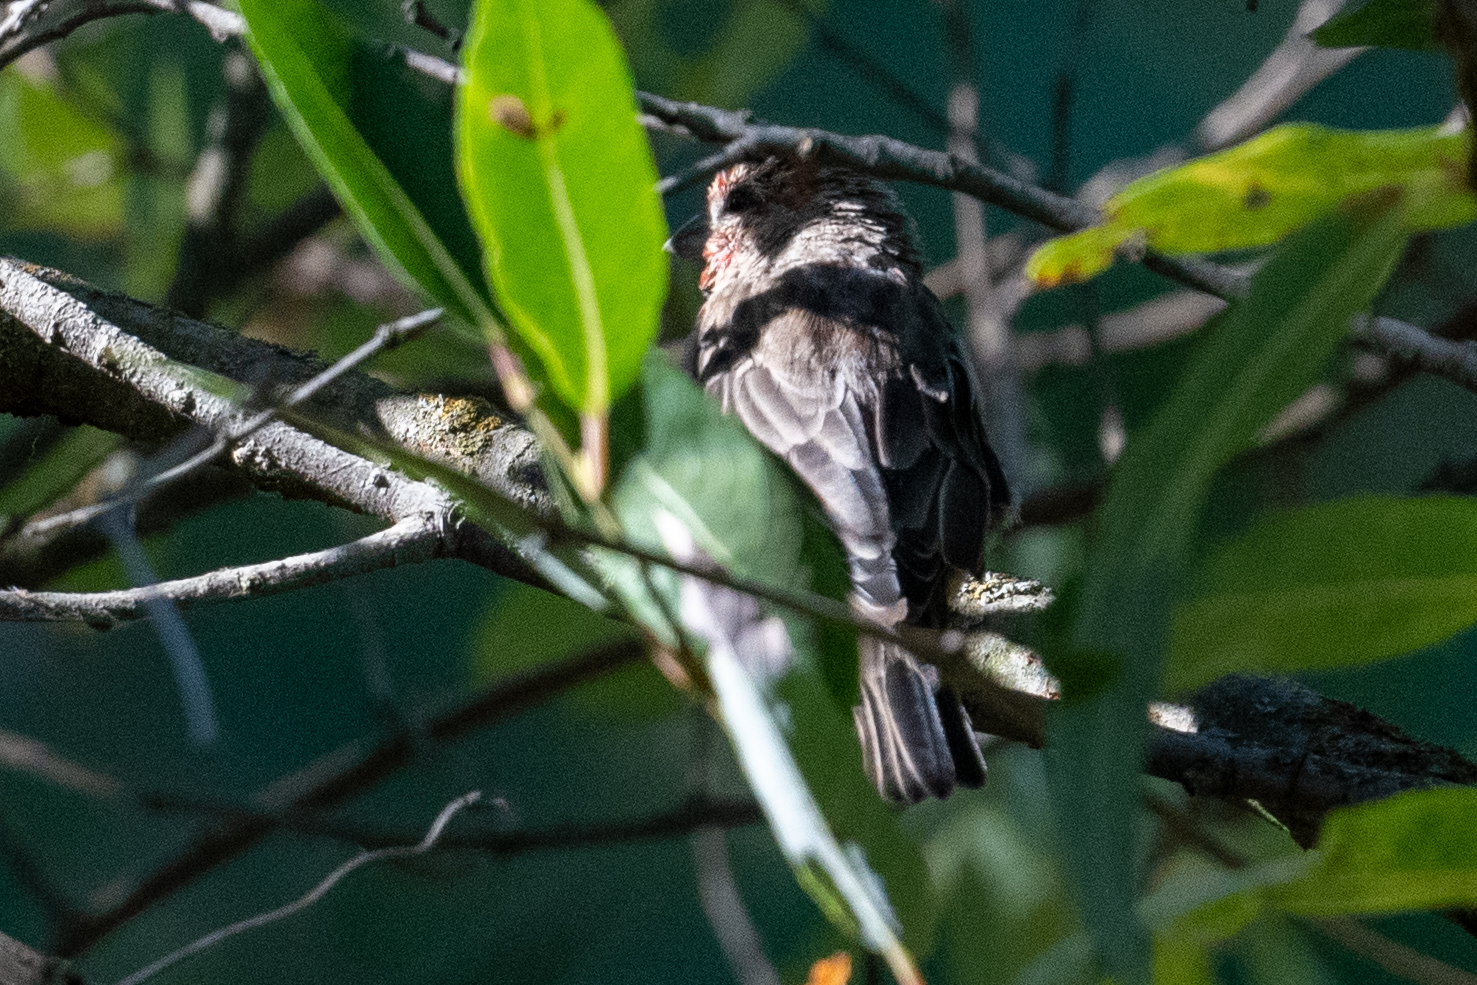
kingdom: Animalia
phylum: Chordata
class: Aves
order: Passeriformes
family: Fringillidae
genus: Haemorhous
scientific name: Haemorhous mexicanus
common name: House finch
